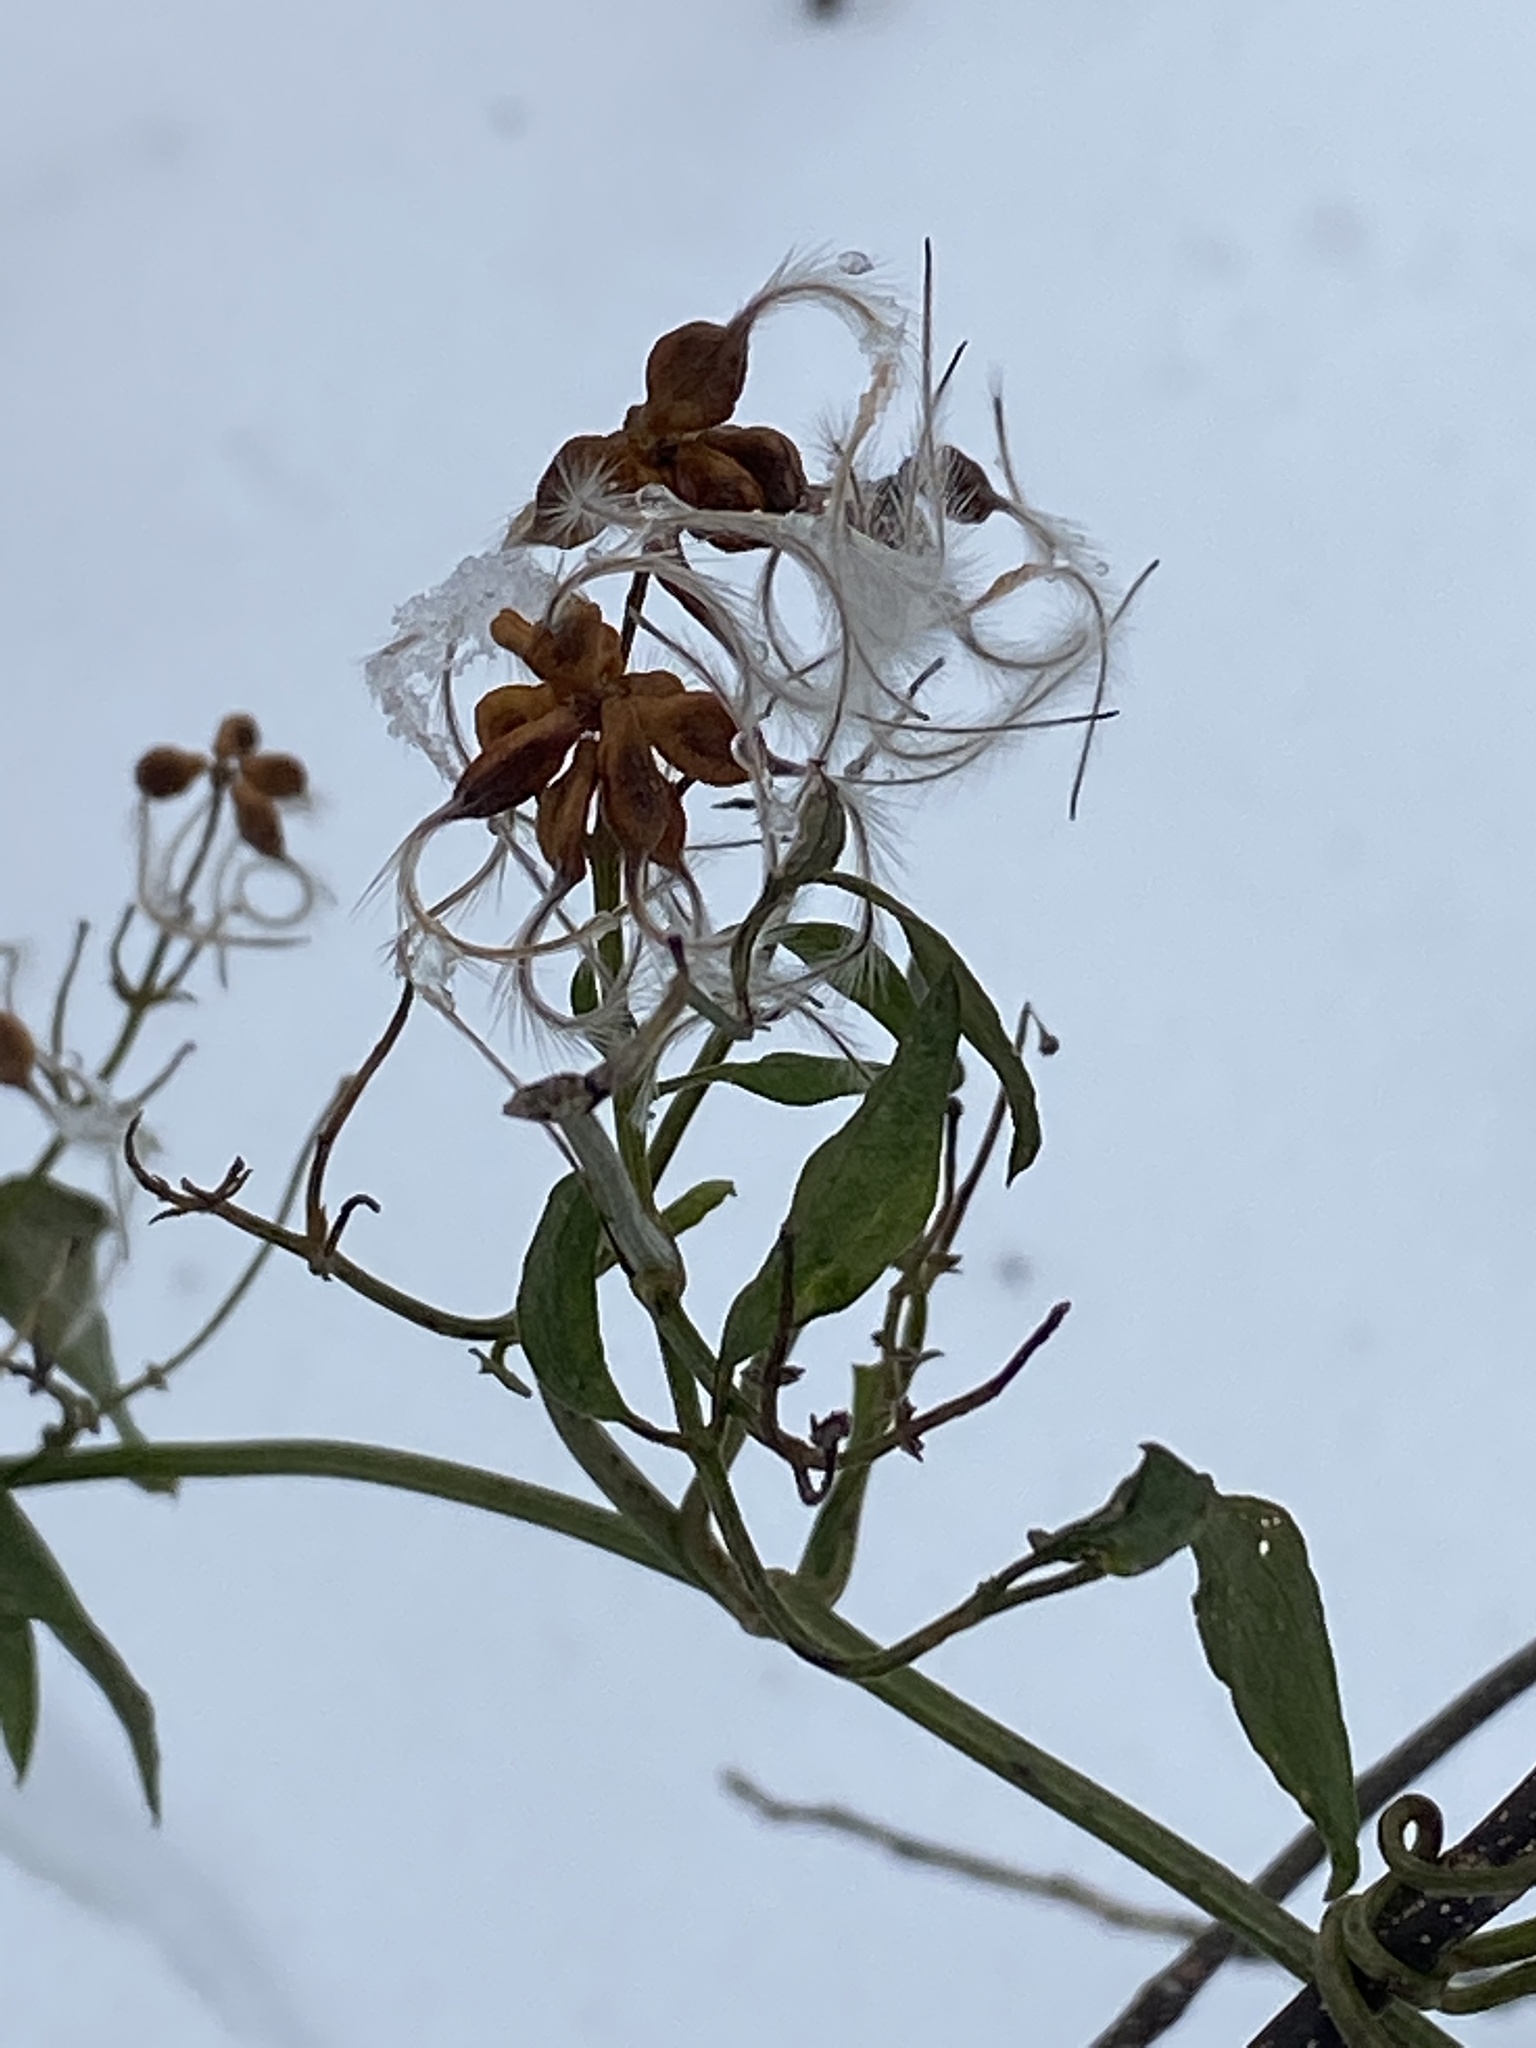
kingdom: Plantae
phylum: Tracheophyta
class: Magnoliopsida
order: Ranunculales
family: Ranunculaceae
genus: Clematis
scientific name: Clematis terniflora
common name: Sweet autumn clematis
